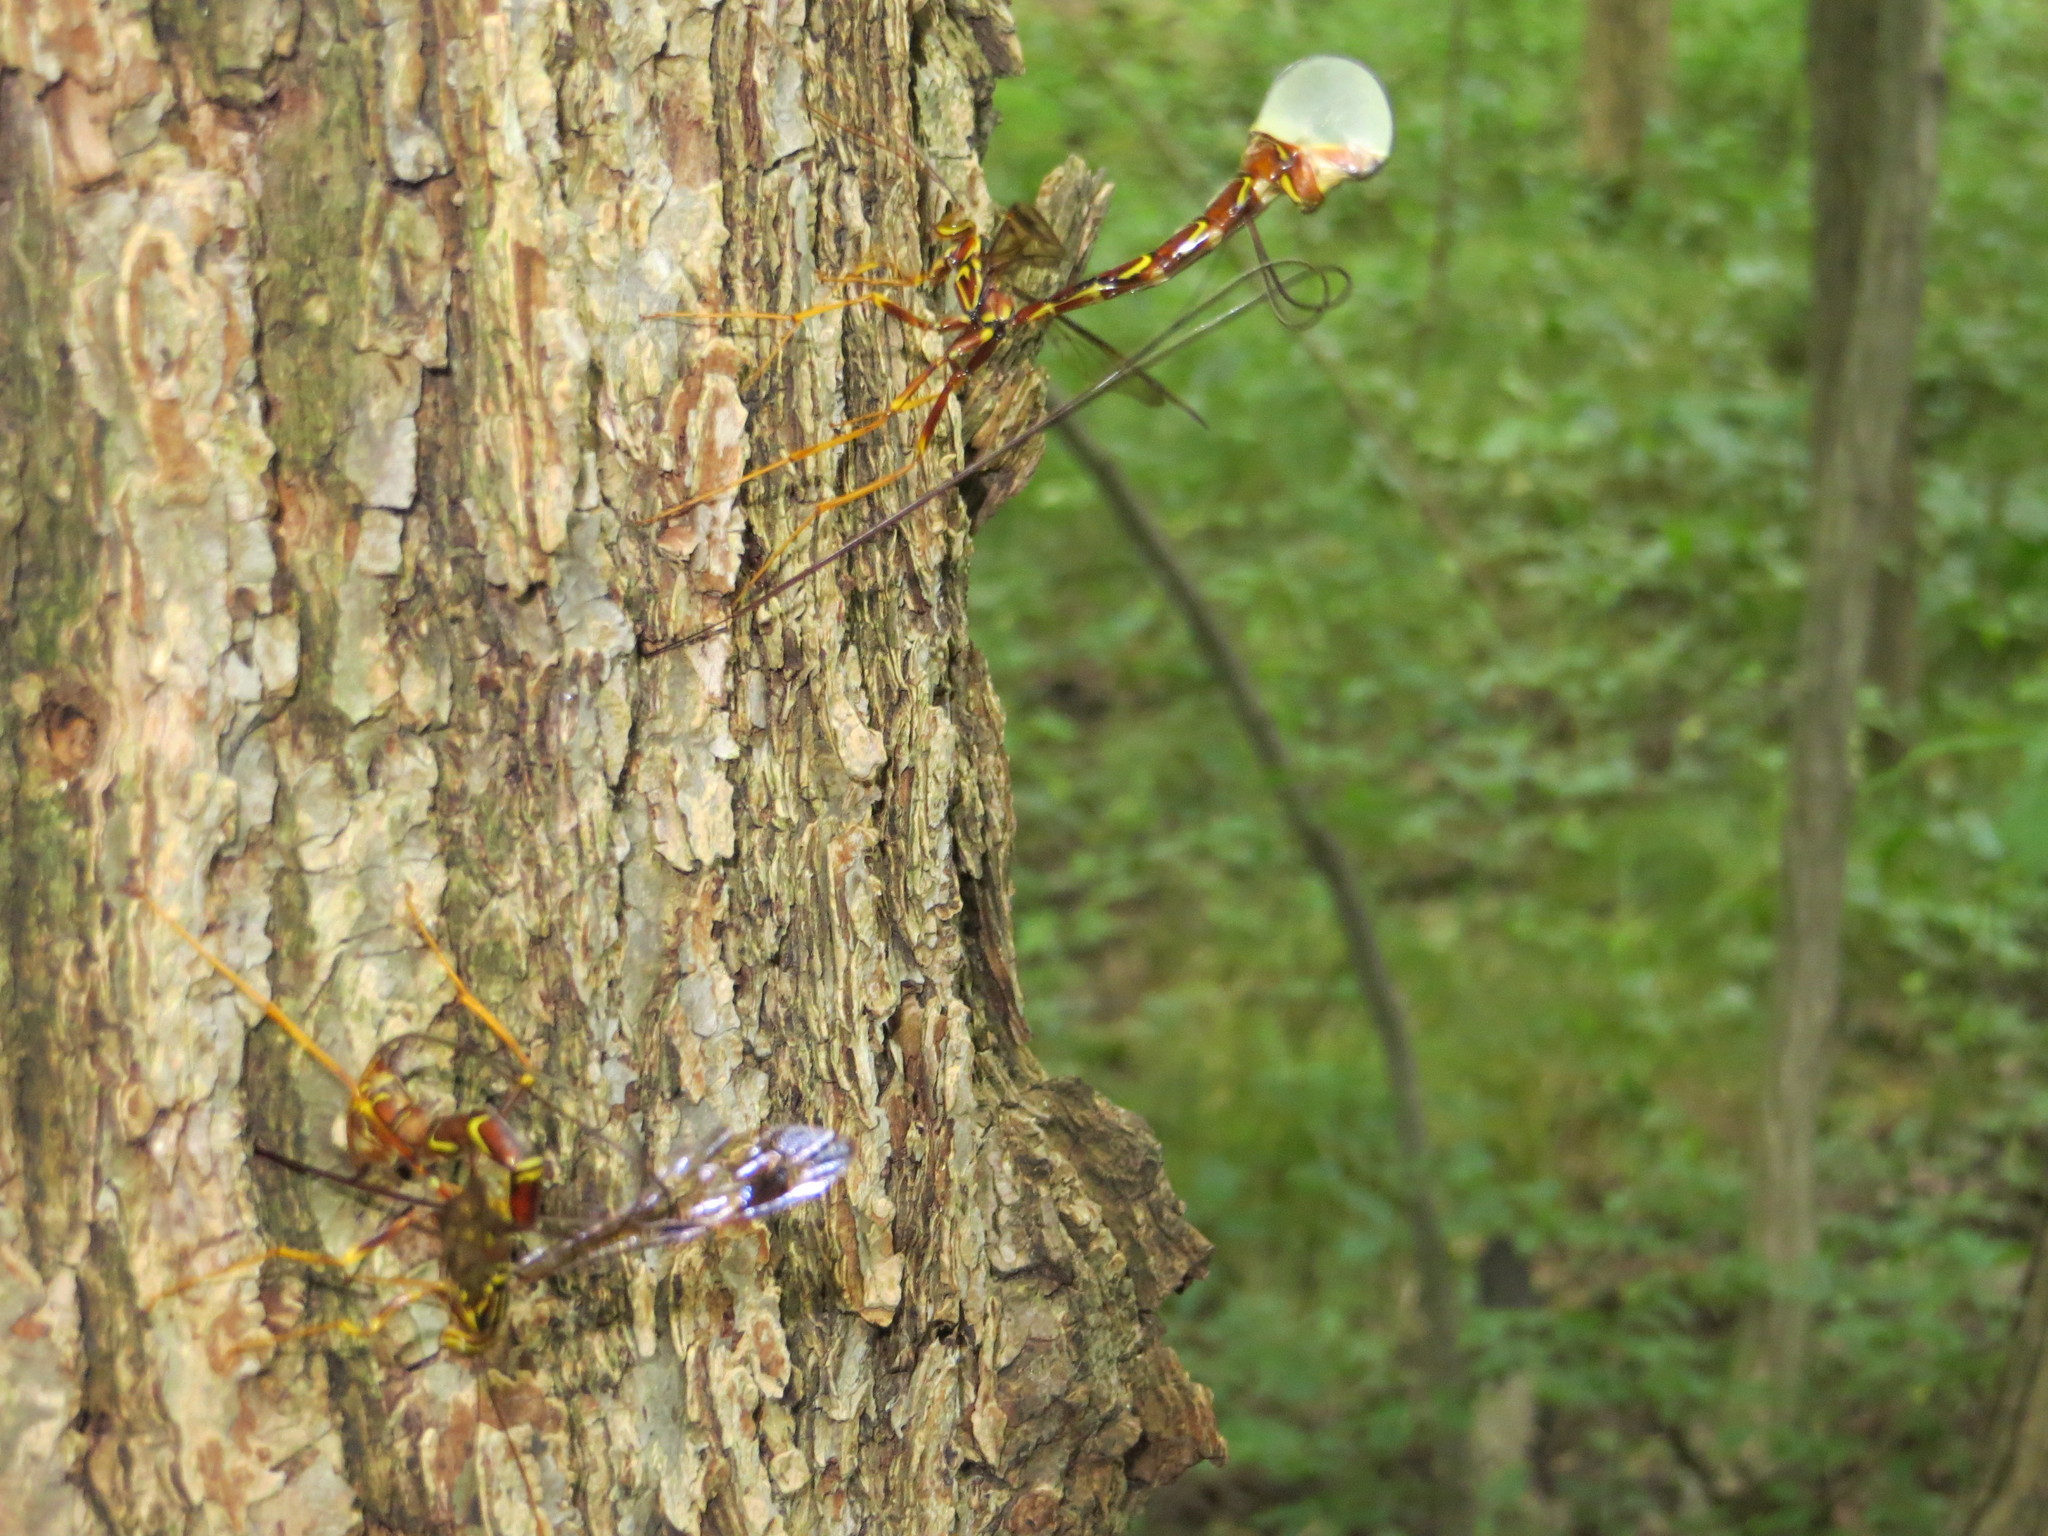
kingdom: Animalia
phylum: Arthropoda
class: Insecta
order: Hymenoptera
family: Ichneumonidae
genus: Megarhyssa
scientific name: Megarhyssa macrura
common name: Long-tailed giant ichneumonid wasp
